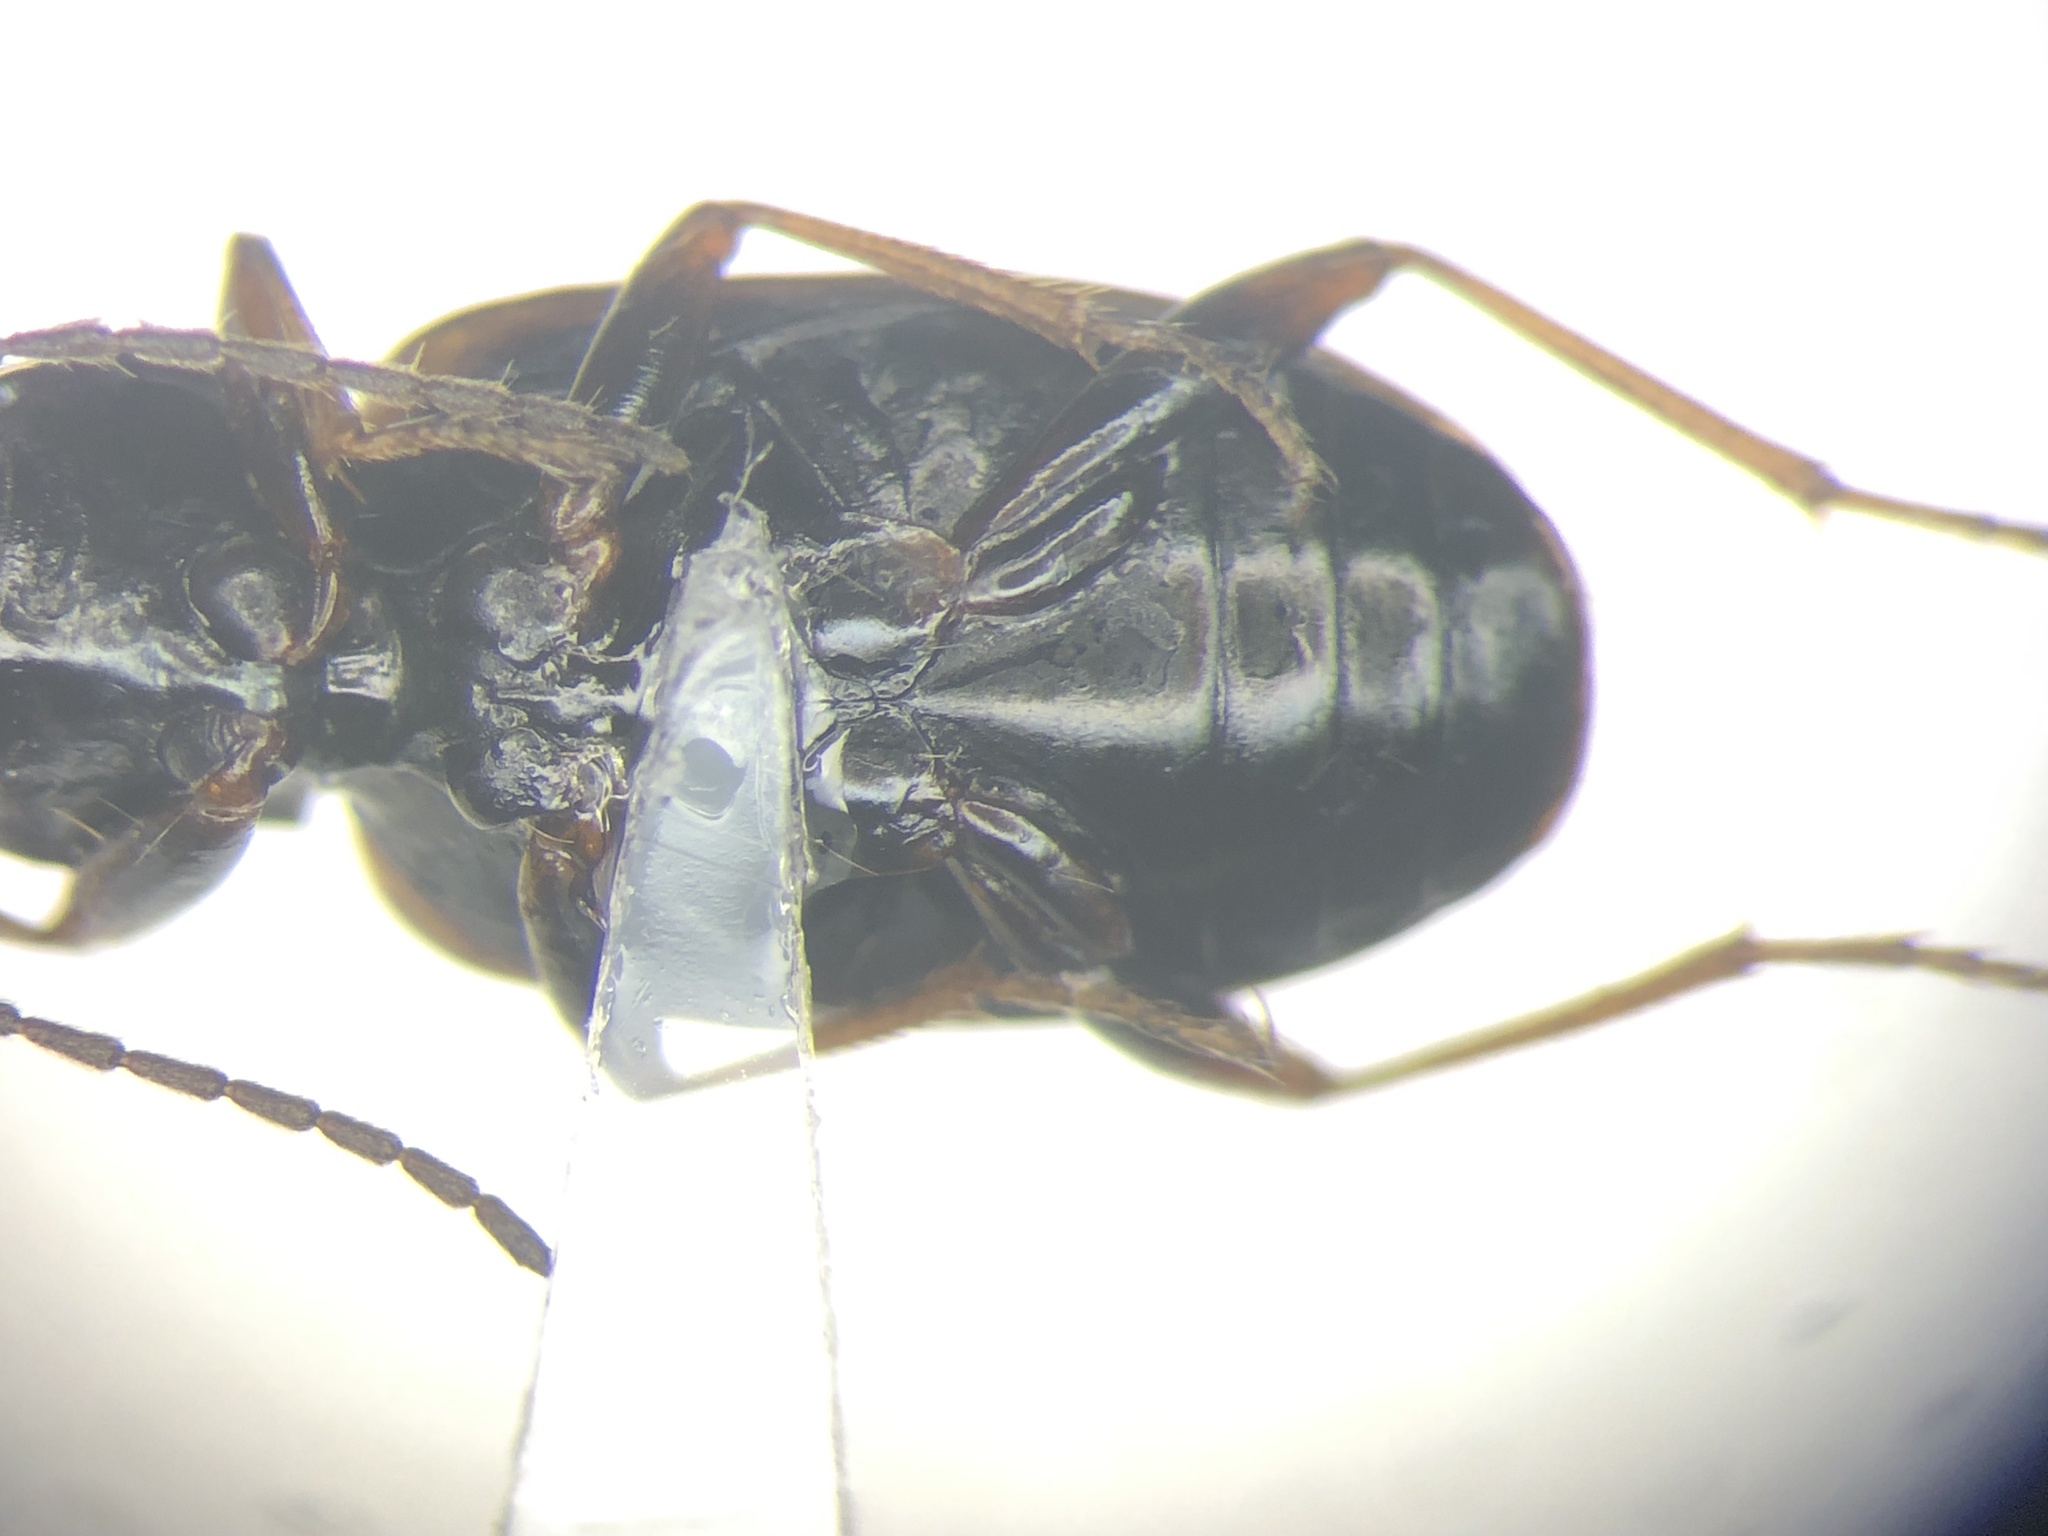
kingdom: Animalia
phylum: Arthropoda
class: Insecta
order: Coleoptera
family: Carabidae
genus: Bembidion
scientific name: Bembidion incrematum
